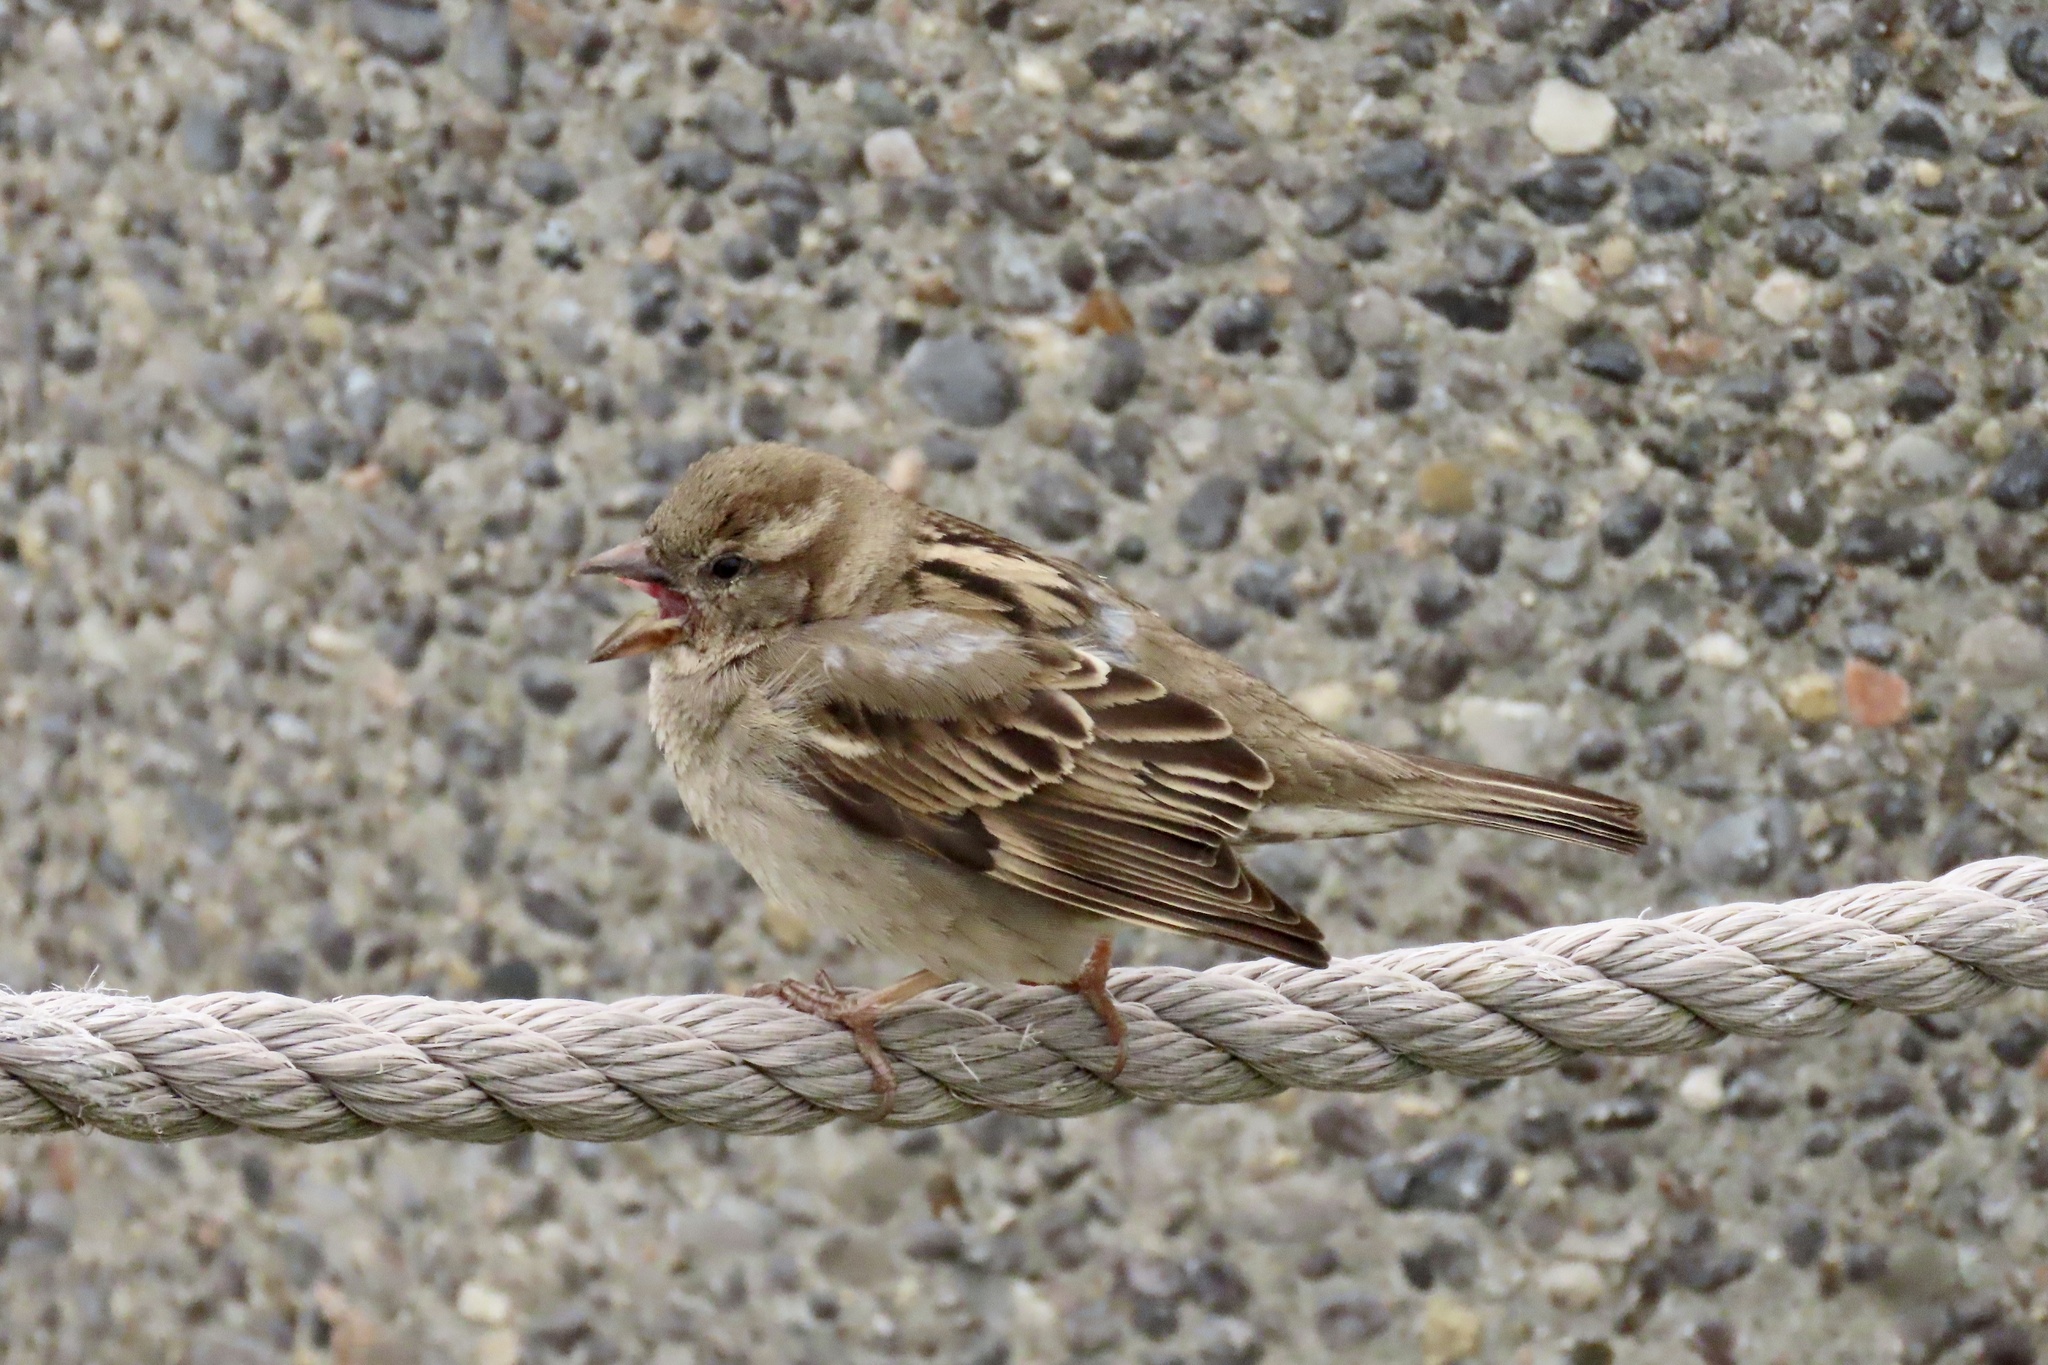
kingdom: Animalia
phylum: Chordata
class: Aves
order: Passeriformes
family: Passeridae
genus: Passer
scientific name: Passer domesticus
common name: House sparrow
